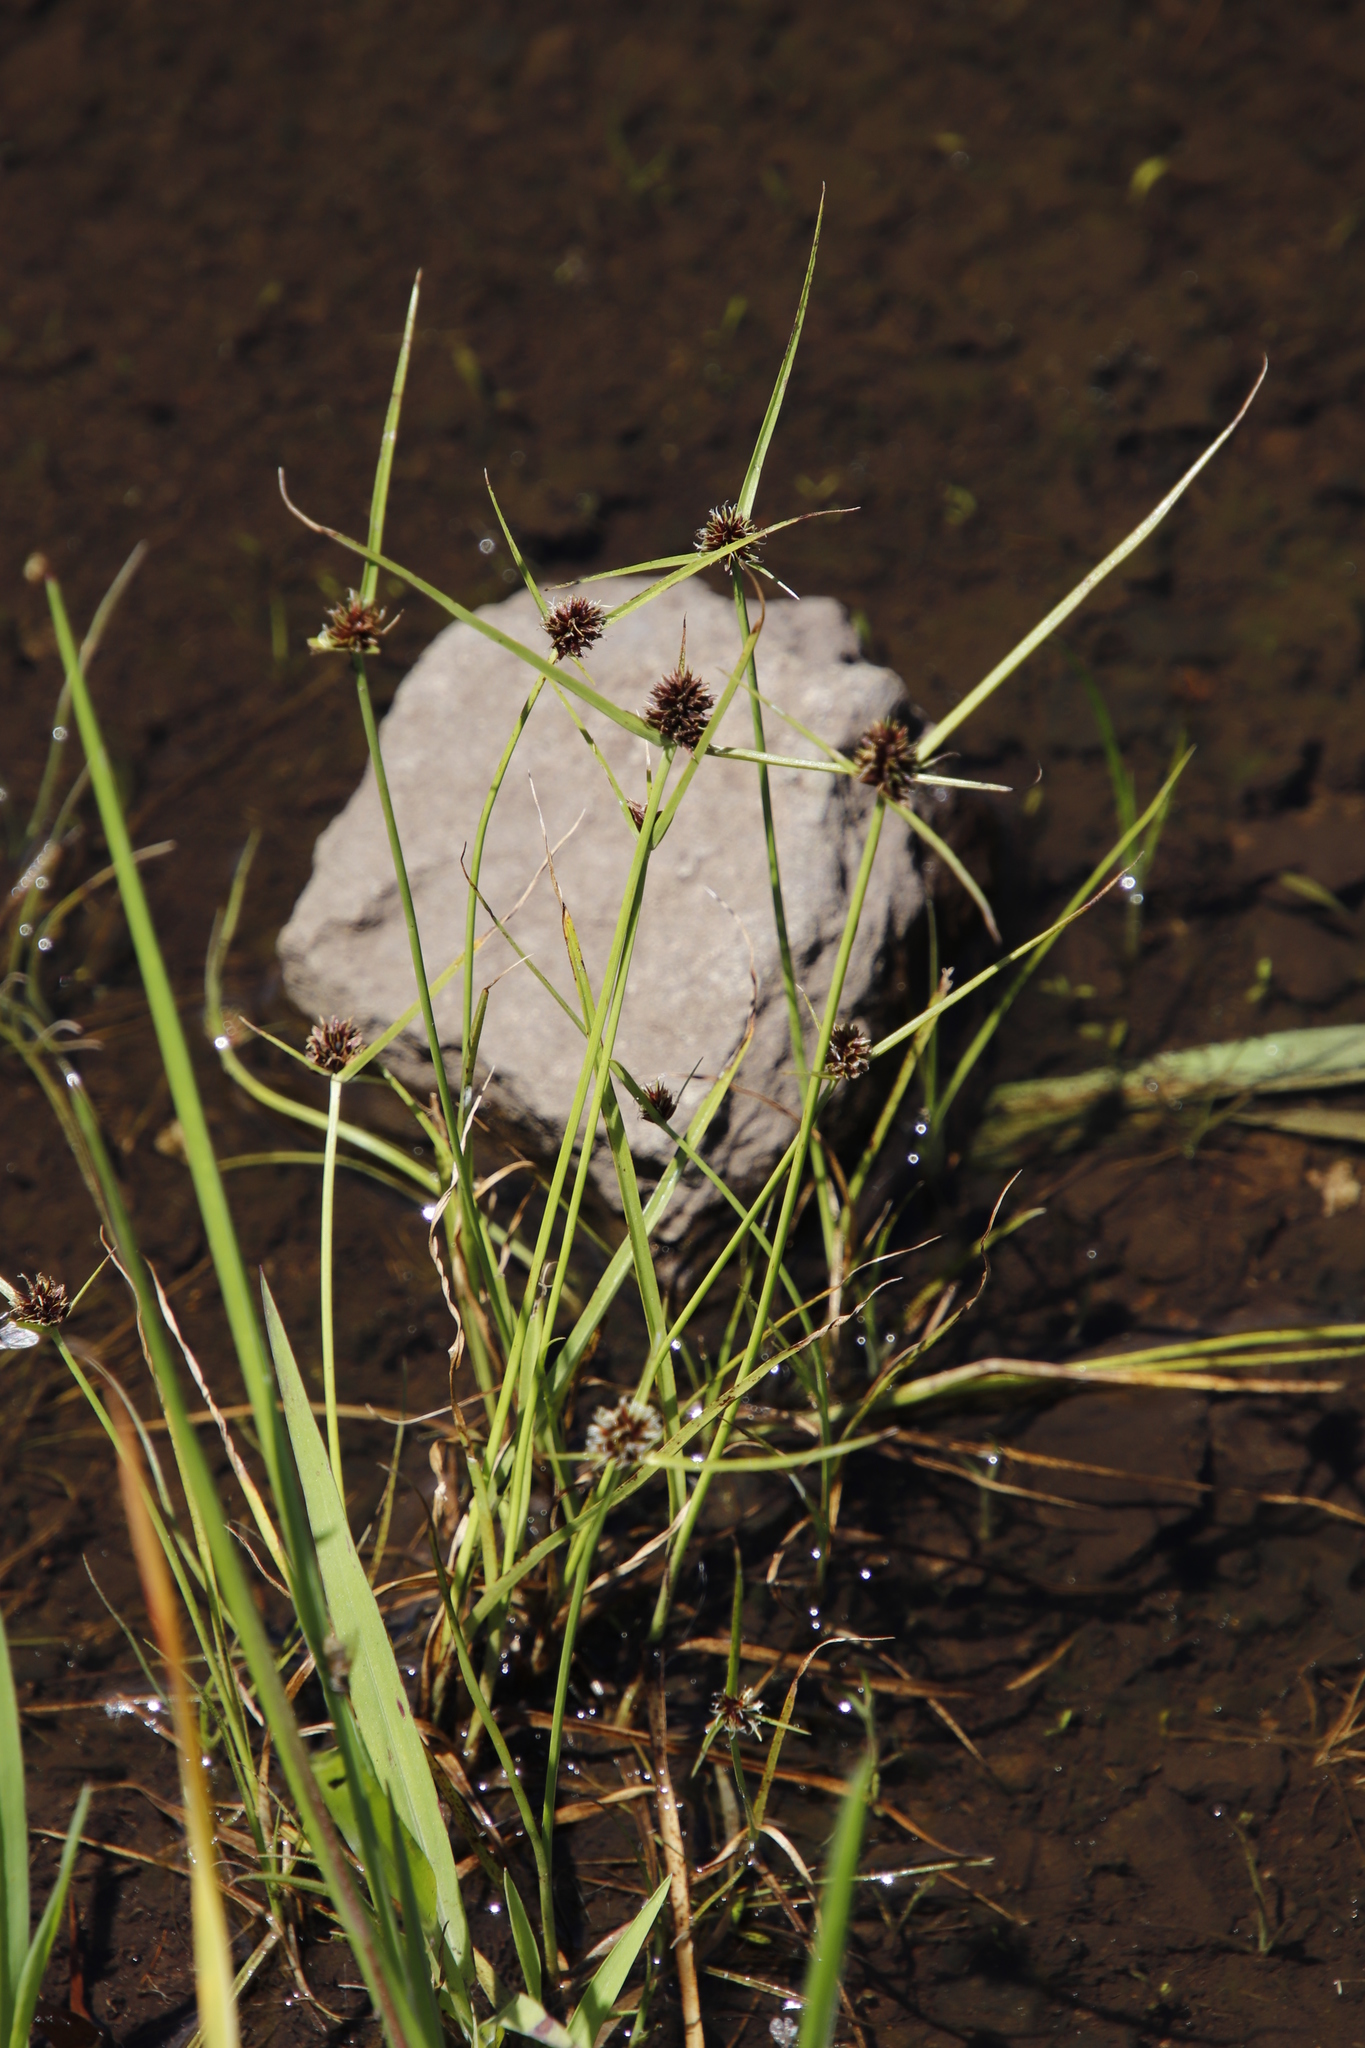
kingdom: Plantae
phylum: Tracheophyta
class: Liliopsida
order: Poales
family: Cyperaceae
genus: Cyperus
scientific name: Cyperus bracheilema
